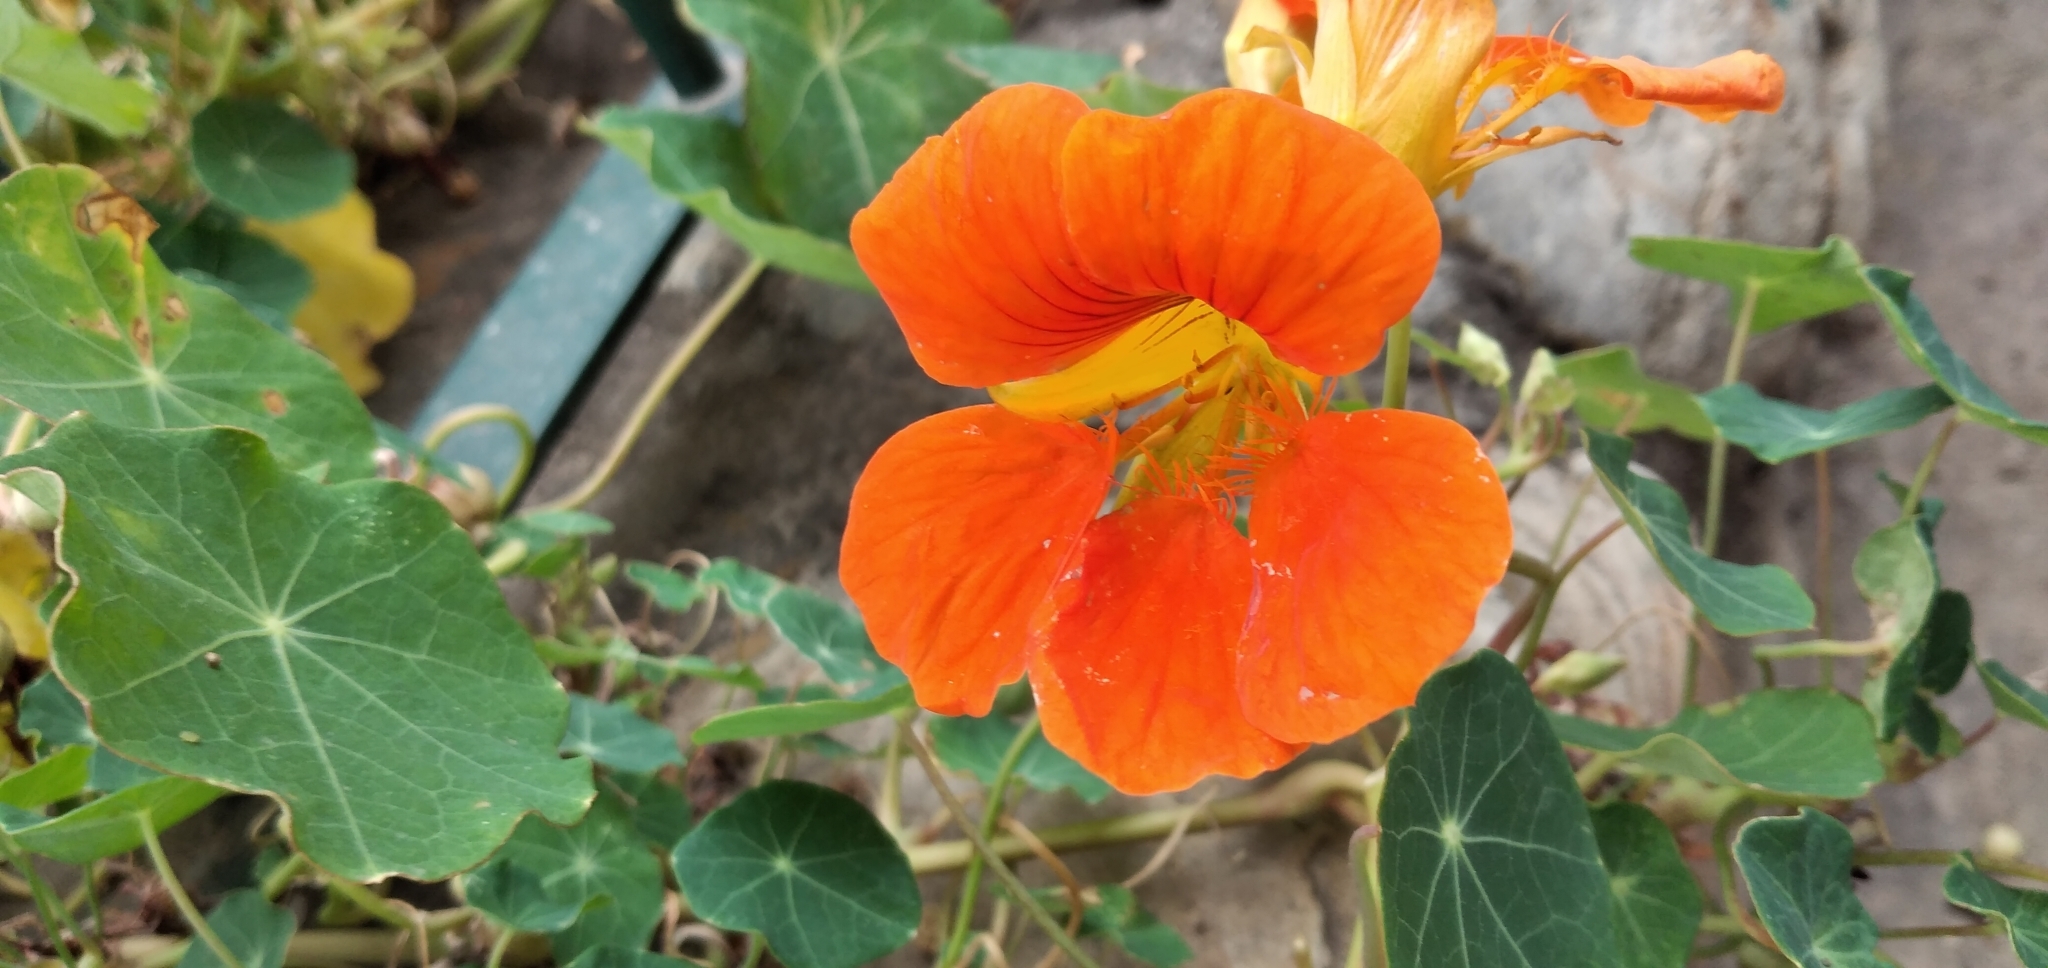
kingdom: Plantae
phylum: Tracheophyta
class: Magnoliopsida
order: Brassicales
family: Tropaeolaceae
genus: Tropaeolum
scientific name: Tropaeolum majus
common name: Nasturtium
